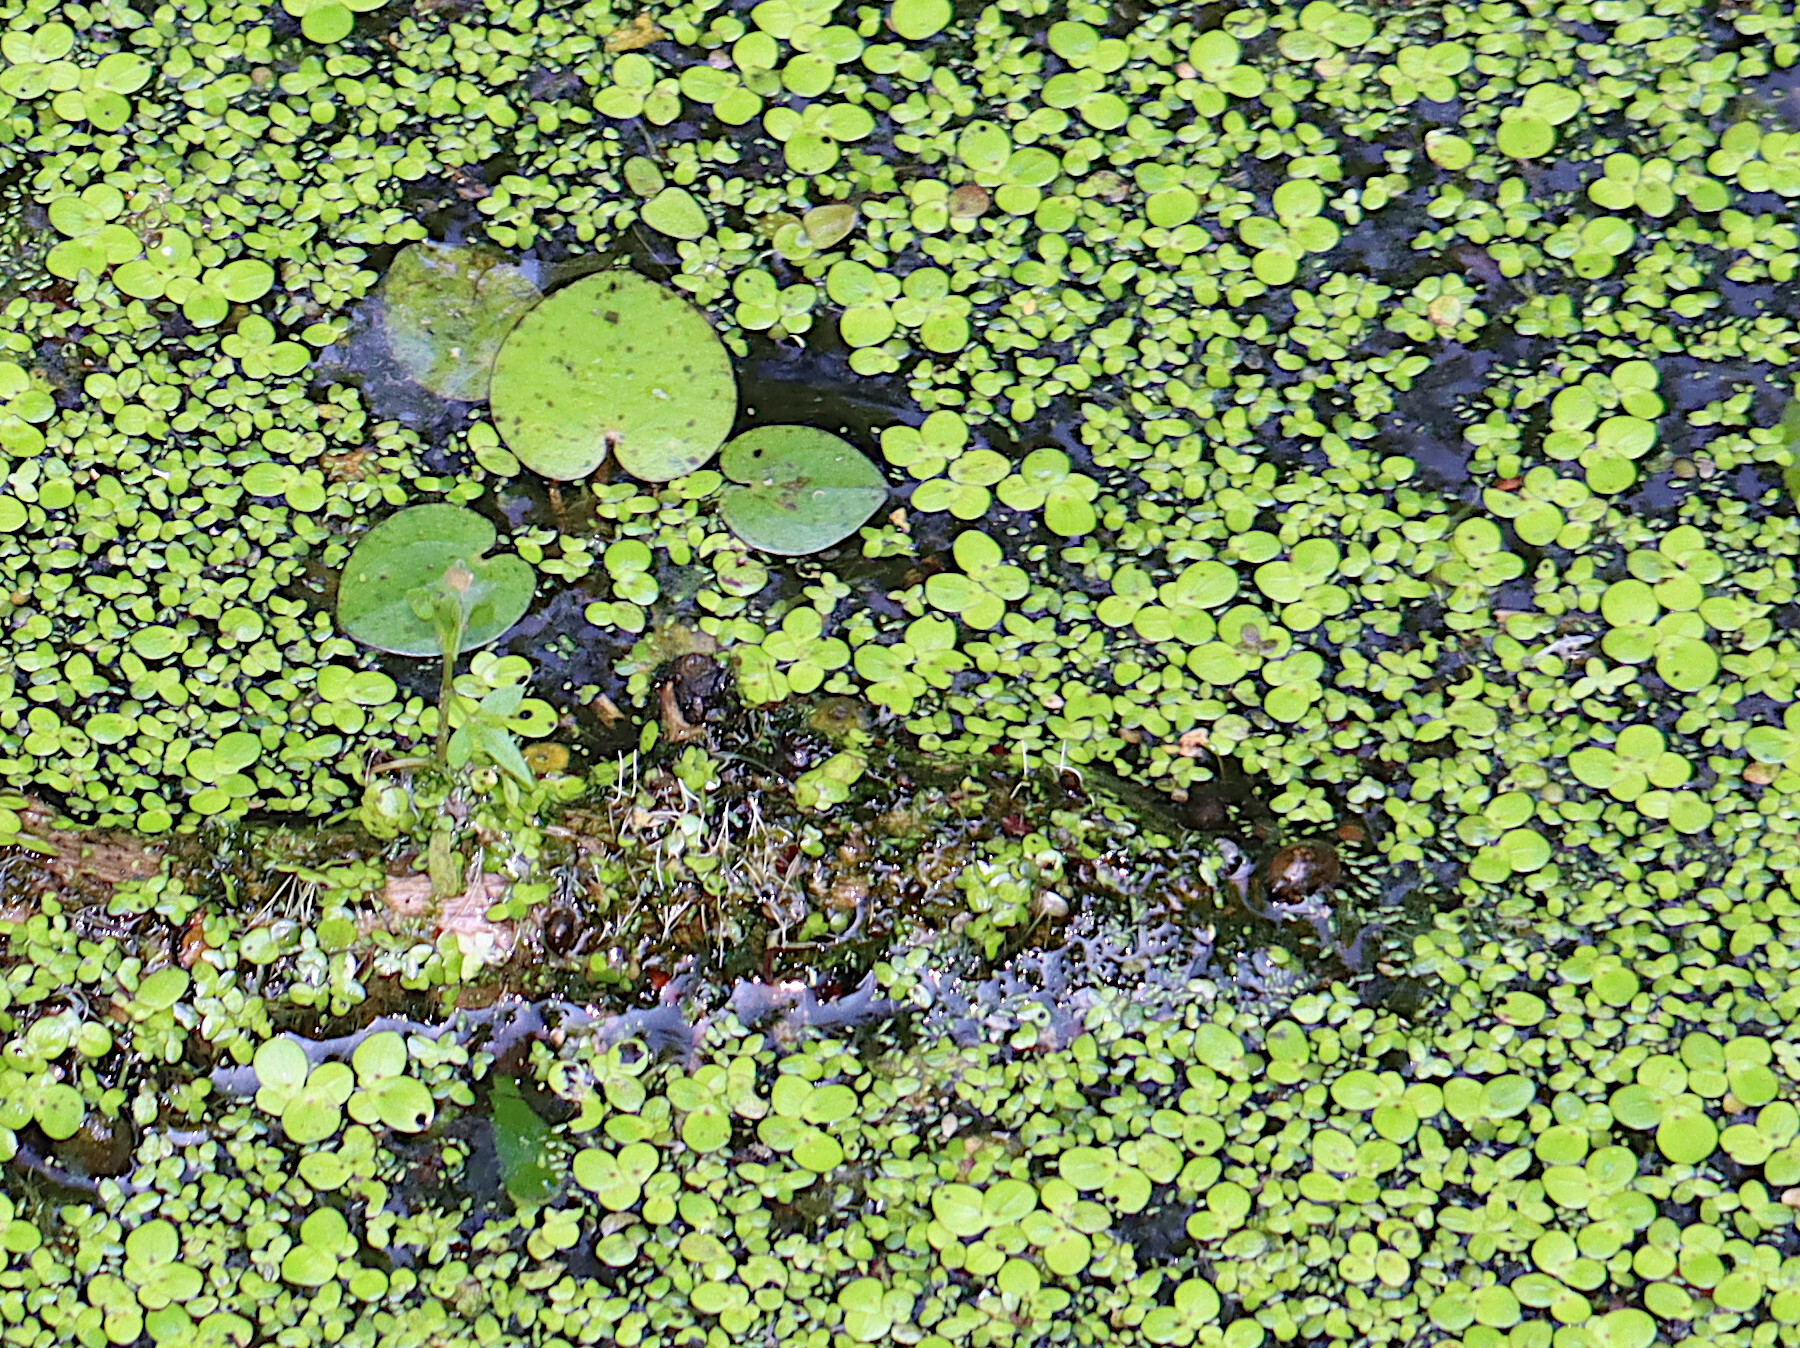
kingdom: Plantae
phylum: Tracheophyta
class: Liliopsida
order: Alismatales
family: Hydrocharitaceae
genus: Hydrocharis
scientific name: Hydrocharis spongia
